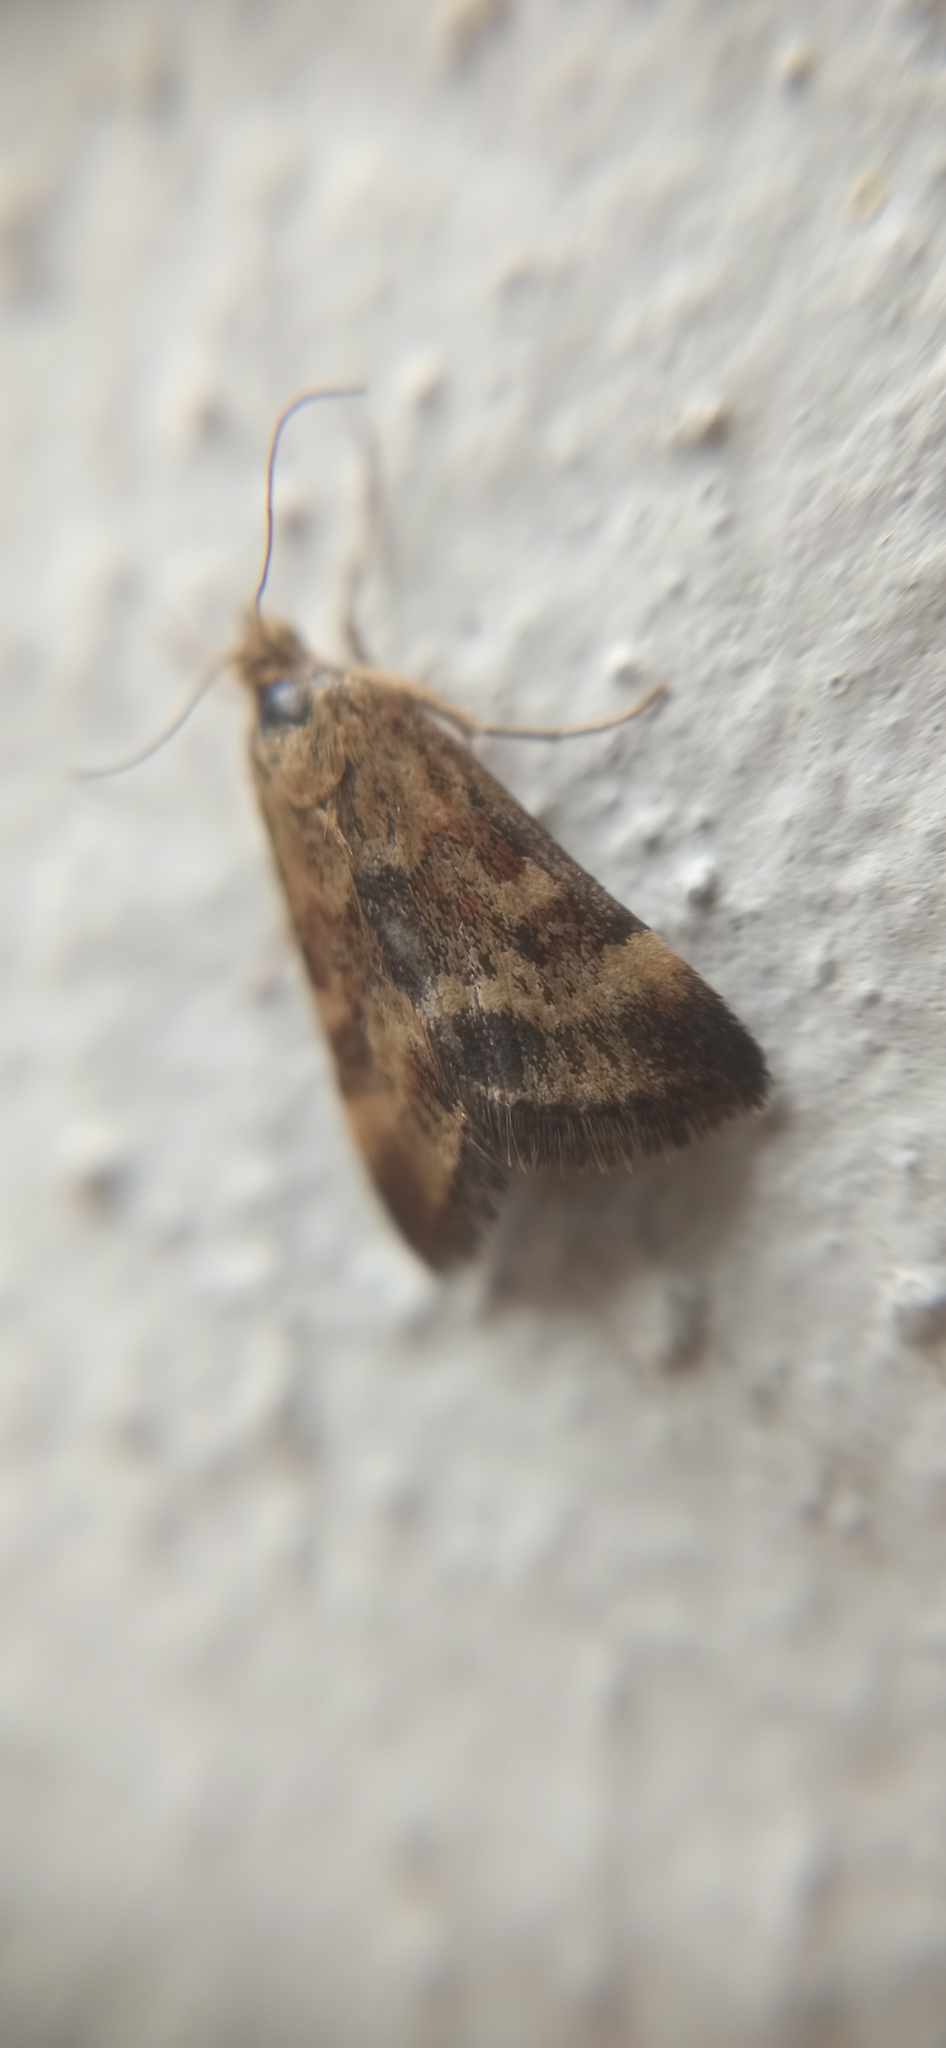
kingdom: Animalia
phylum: Arthropoda
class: Insecta
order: Lepidoptera
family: Crambidae
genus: Pyrausta
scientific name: Pyrausta despicata
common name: Straw-barred pearl
